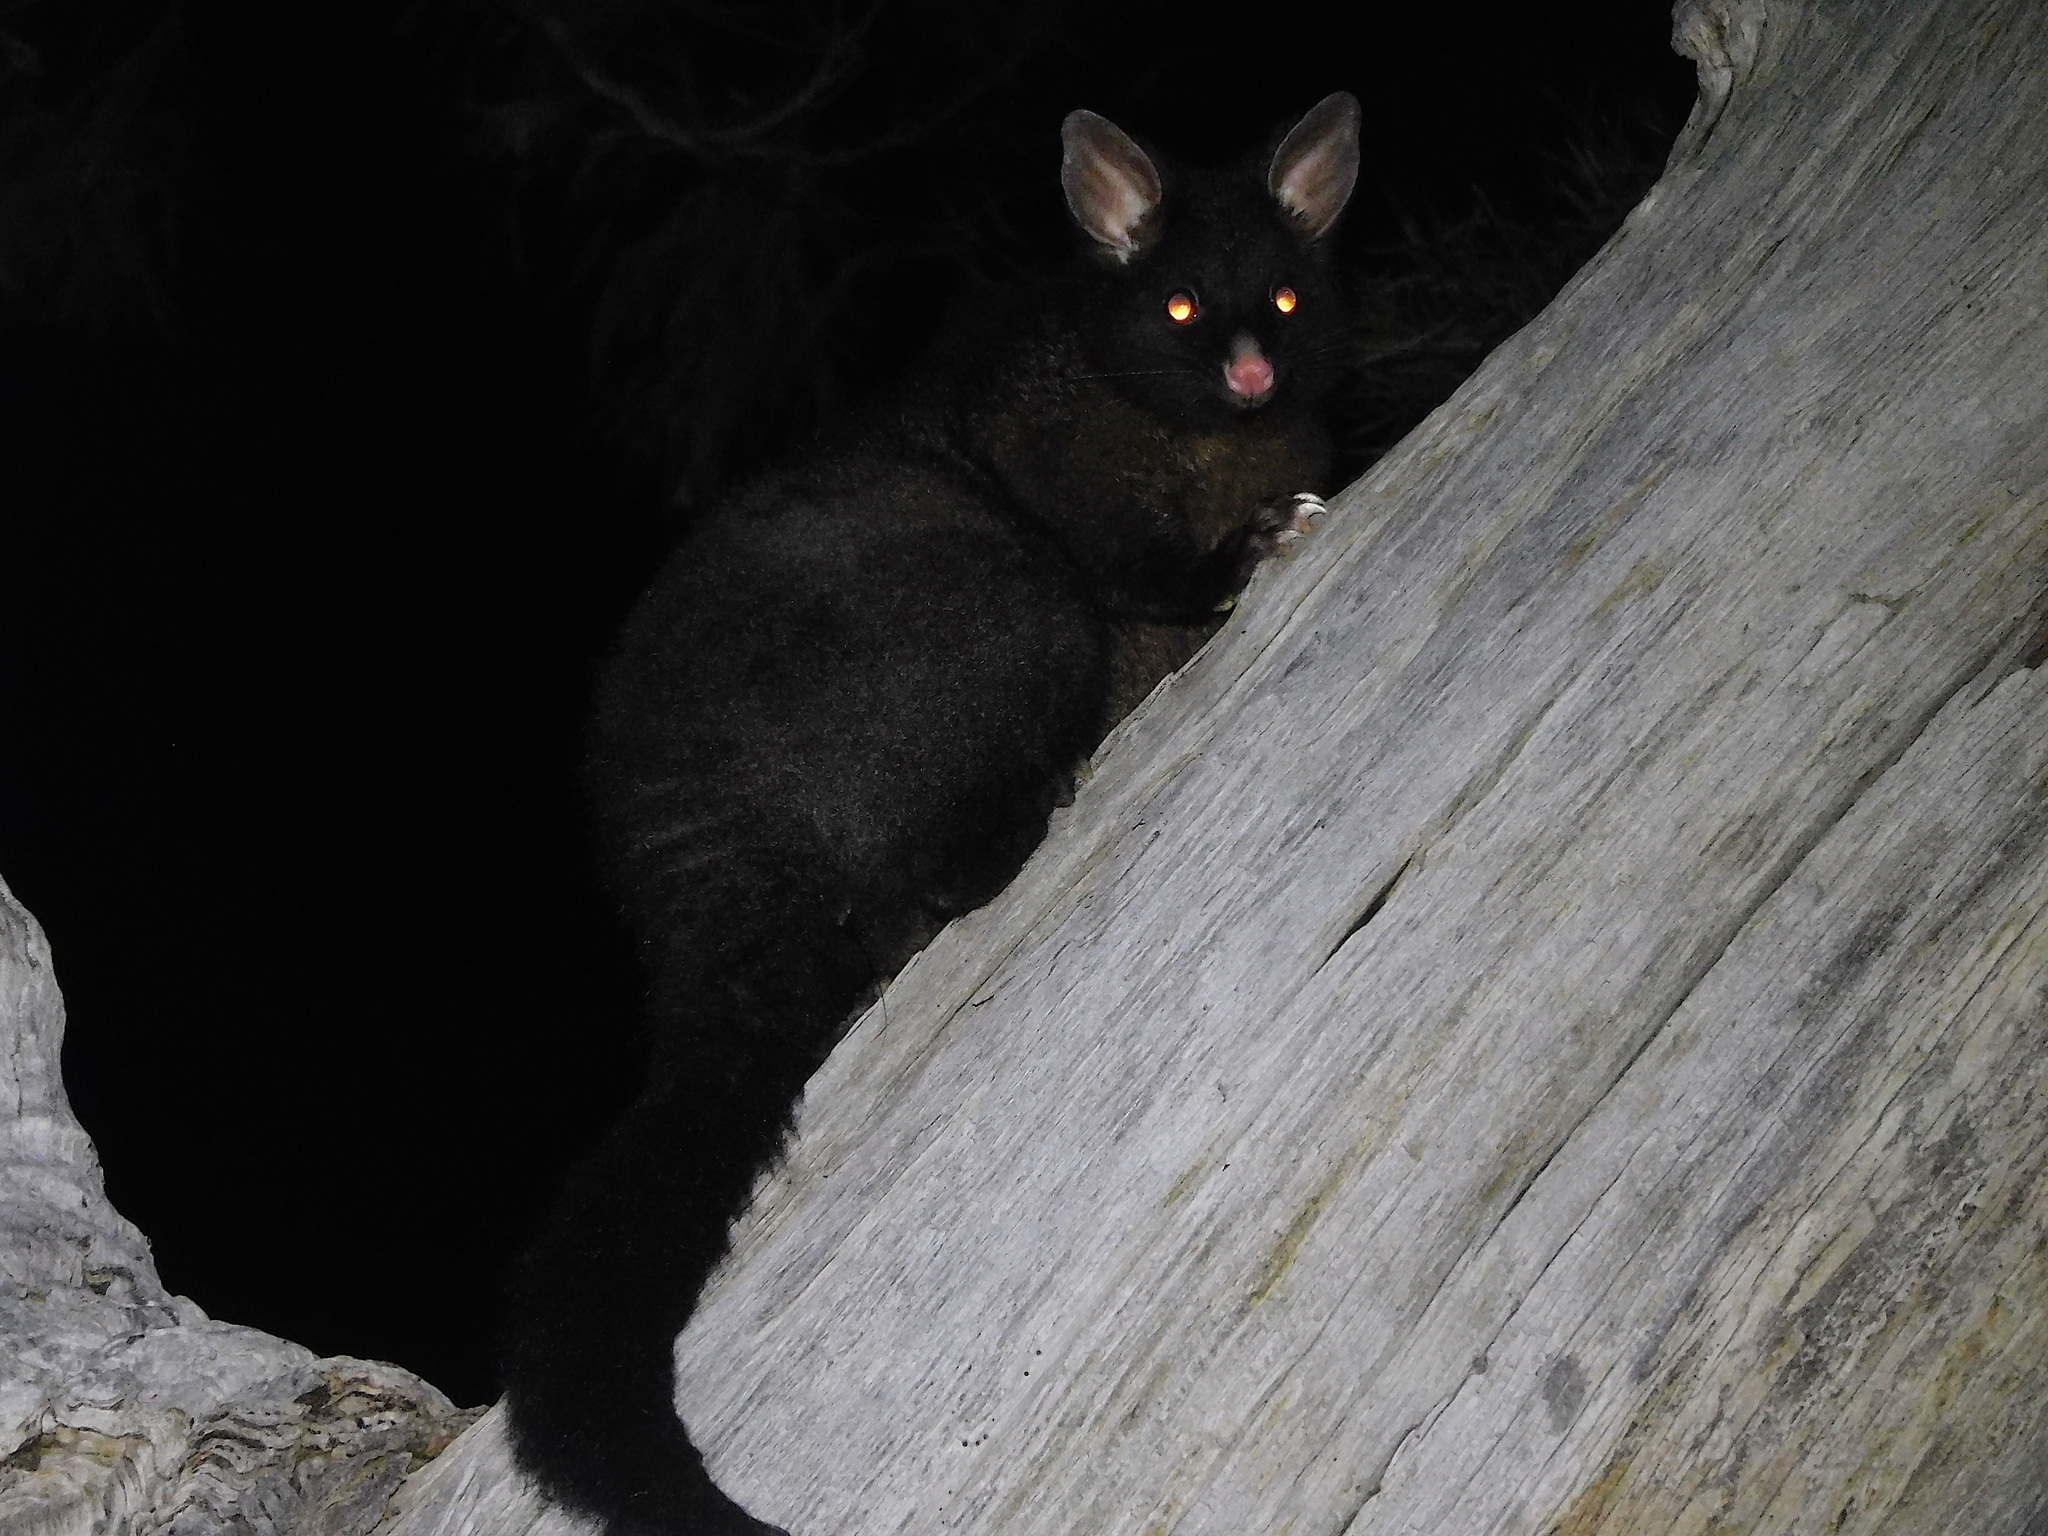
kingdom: Animalia
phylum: Chordata
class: Mammalia
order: Diprotodontia
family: Phalangeridae
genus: Trichosurus
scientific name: Trichosurus vulpecula
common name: Common brushtail
